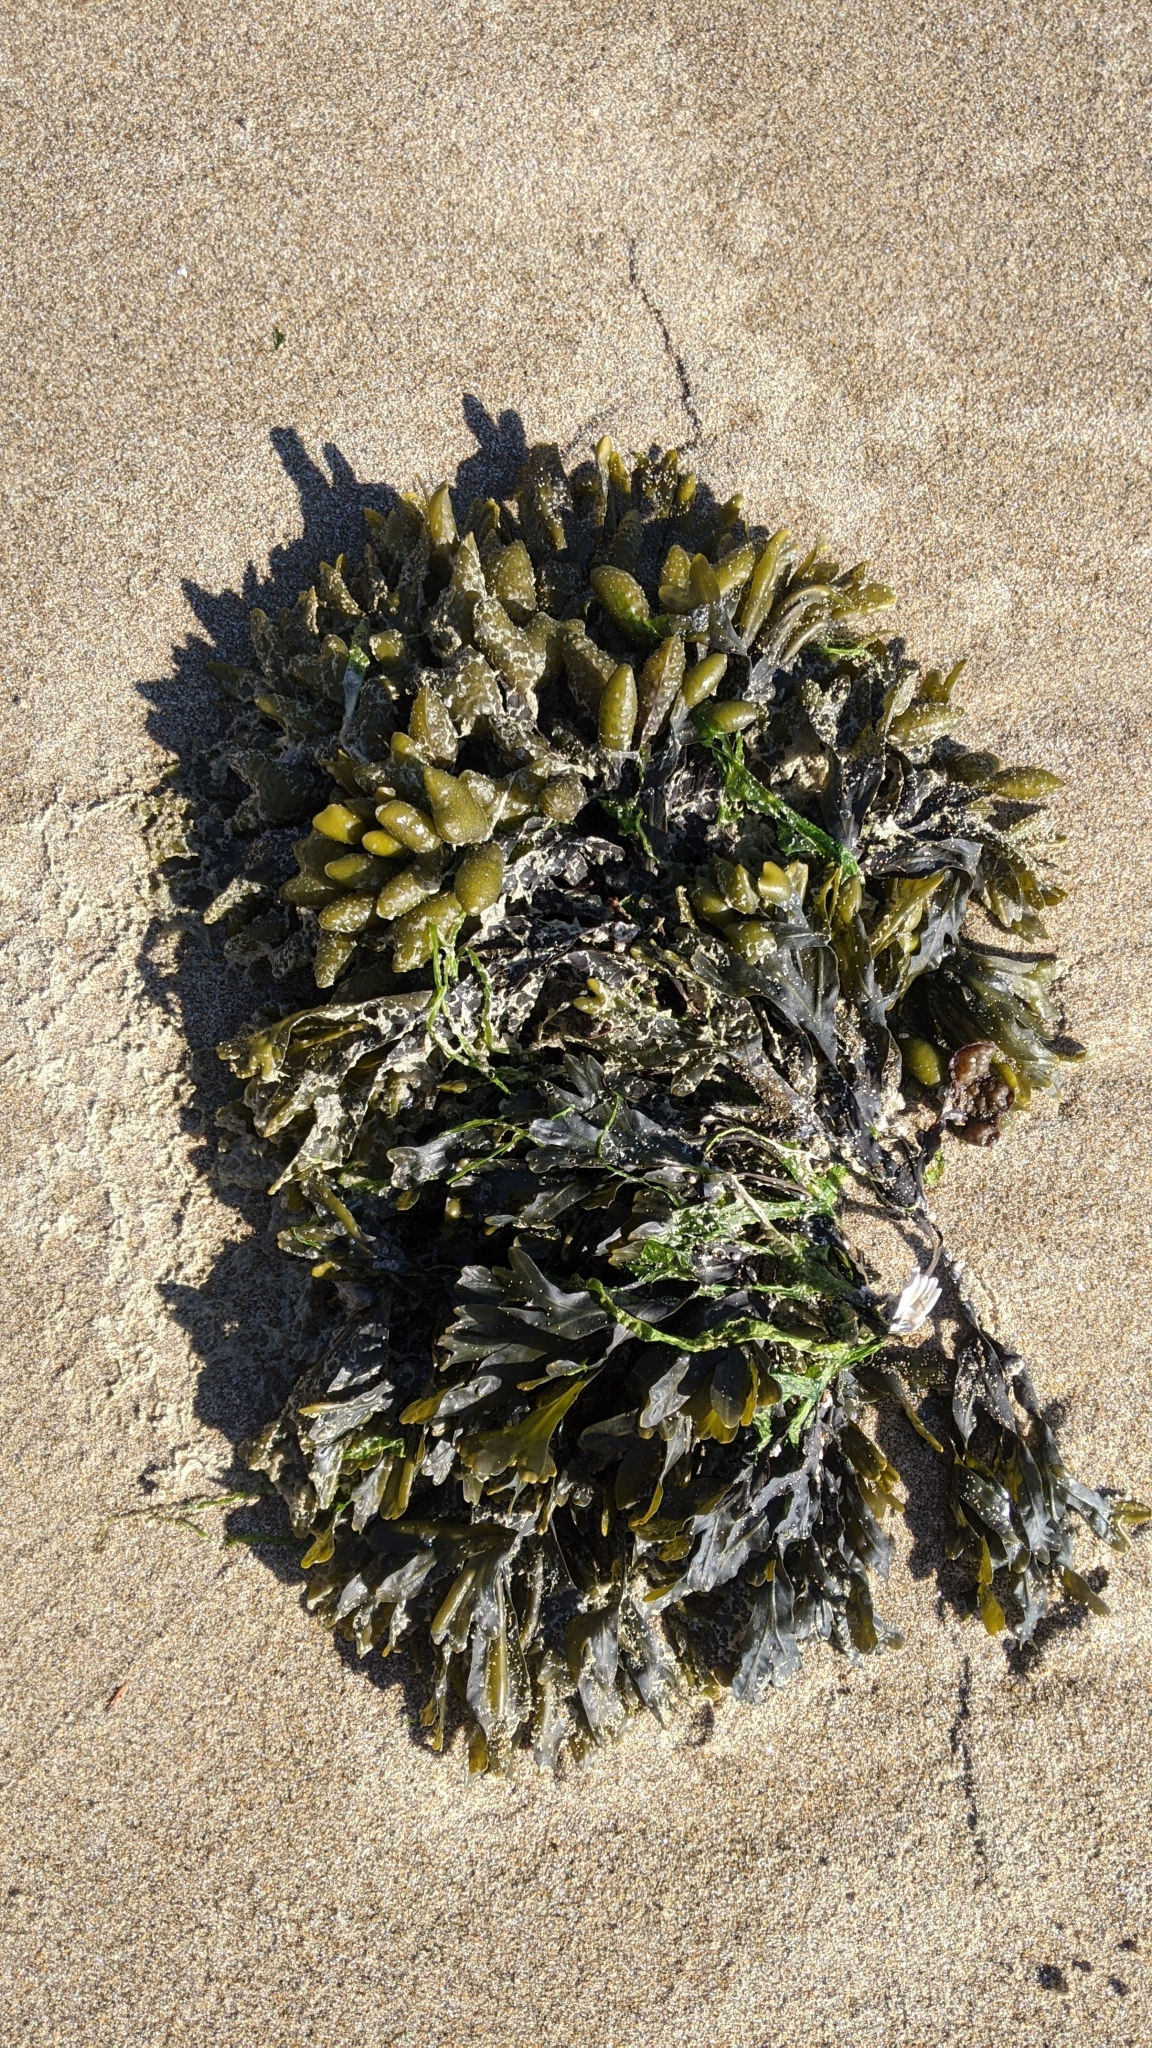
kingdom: Chromista
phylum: Ochrophyta
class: Phaeophyceae
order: Fucales
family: Fucaceae
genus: Fucus
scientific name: Fucus distichus
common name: Rockweed
